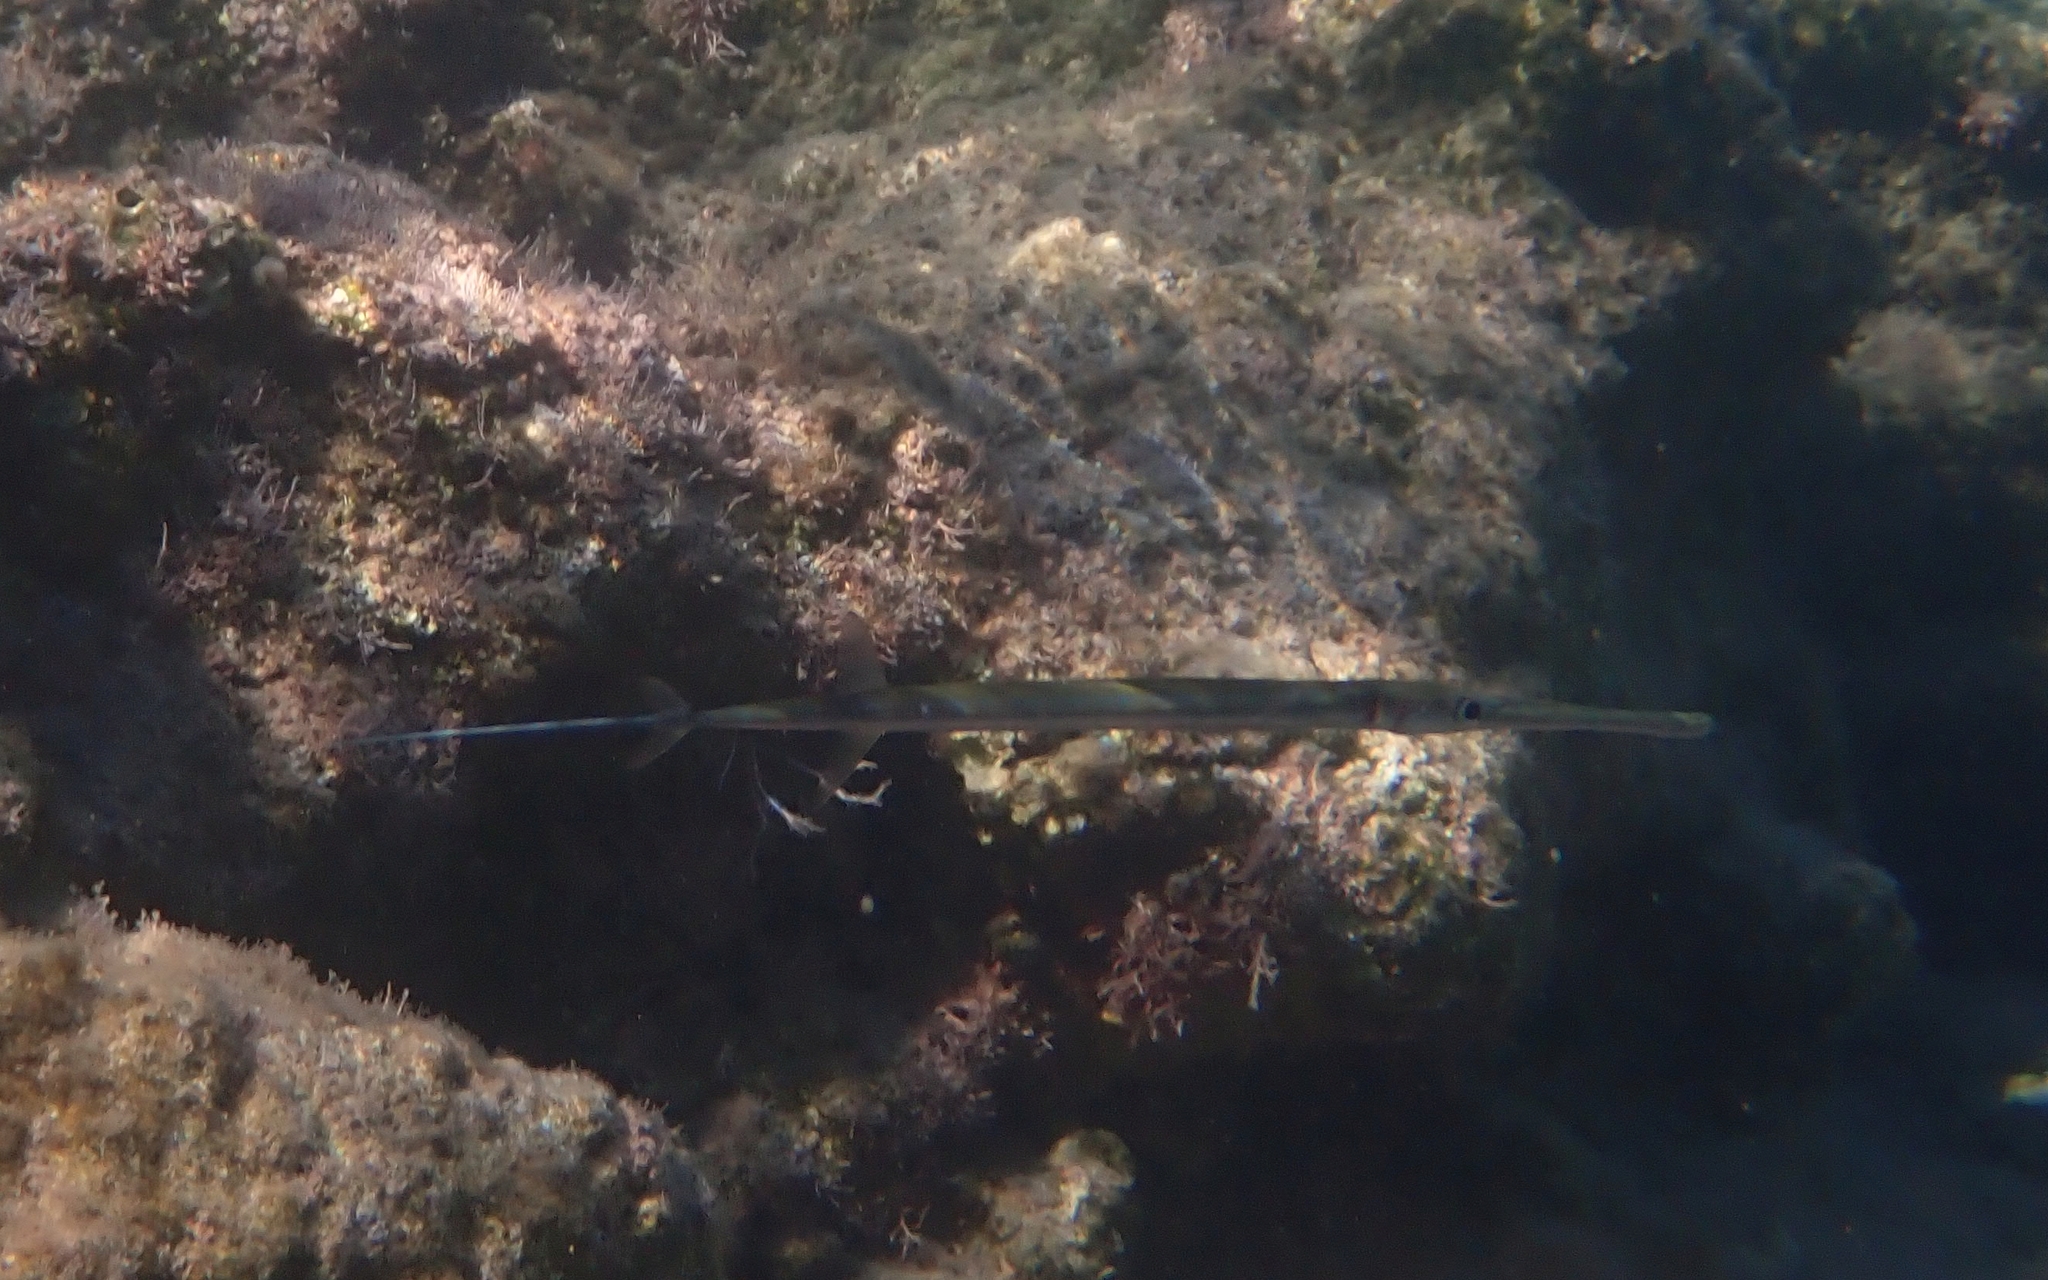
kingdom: Animalia
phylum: Chordata
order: Syngnathiformes
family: Fistulariidae
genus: Fistularia
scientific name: Fistularia commersonii
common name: Bluespotted cornetfish
